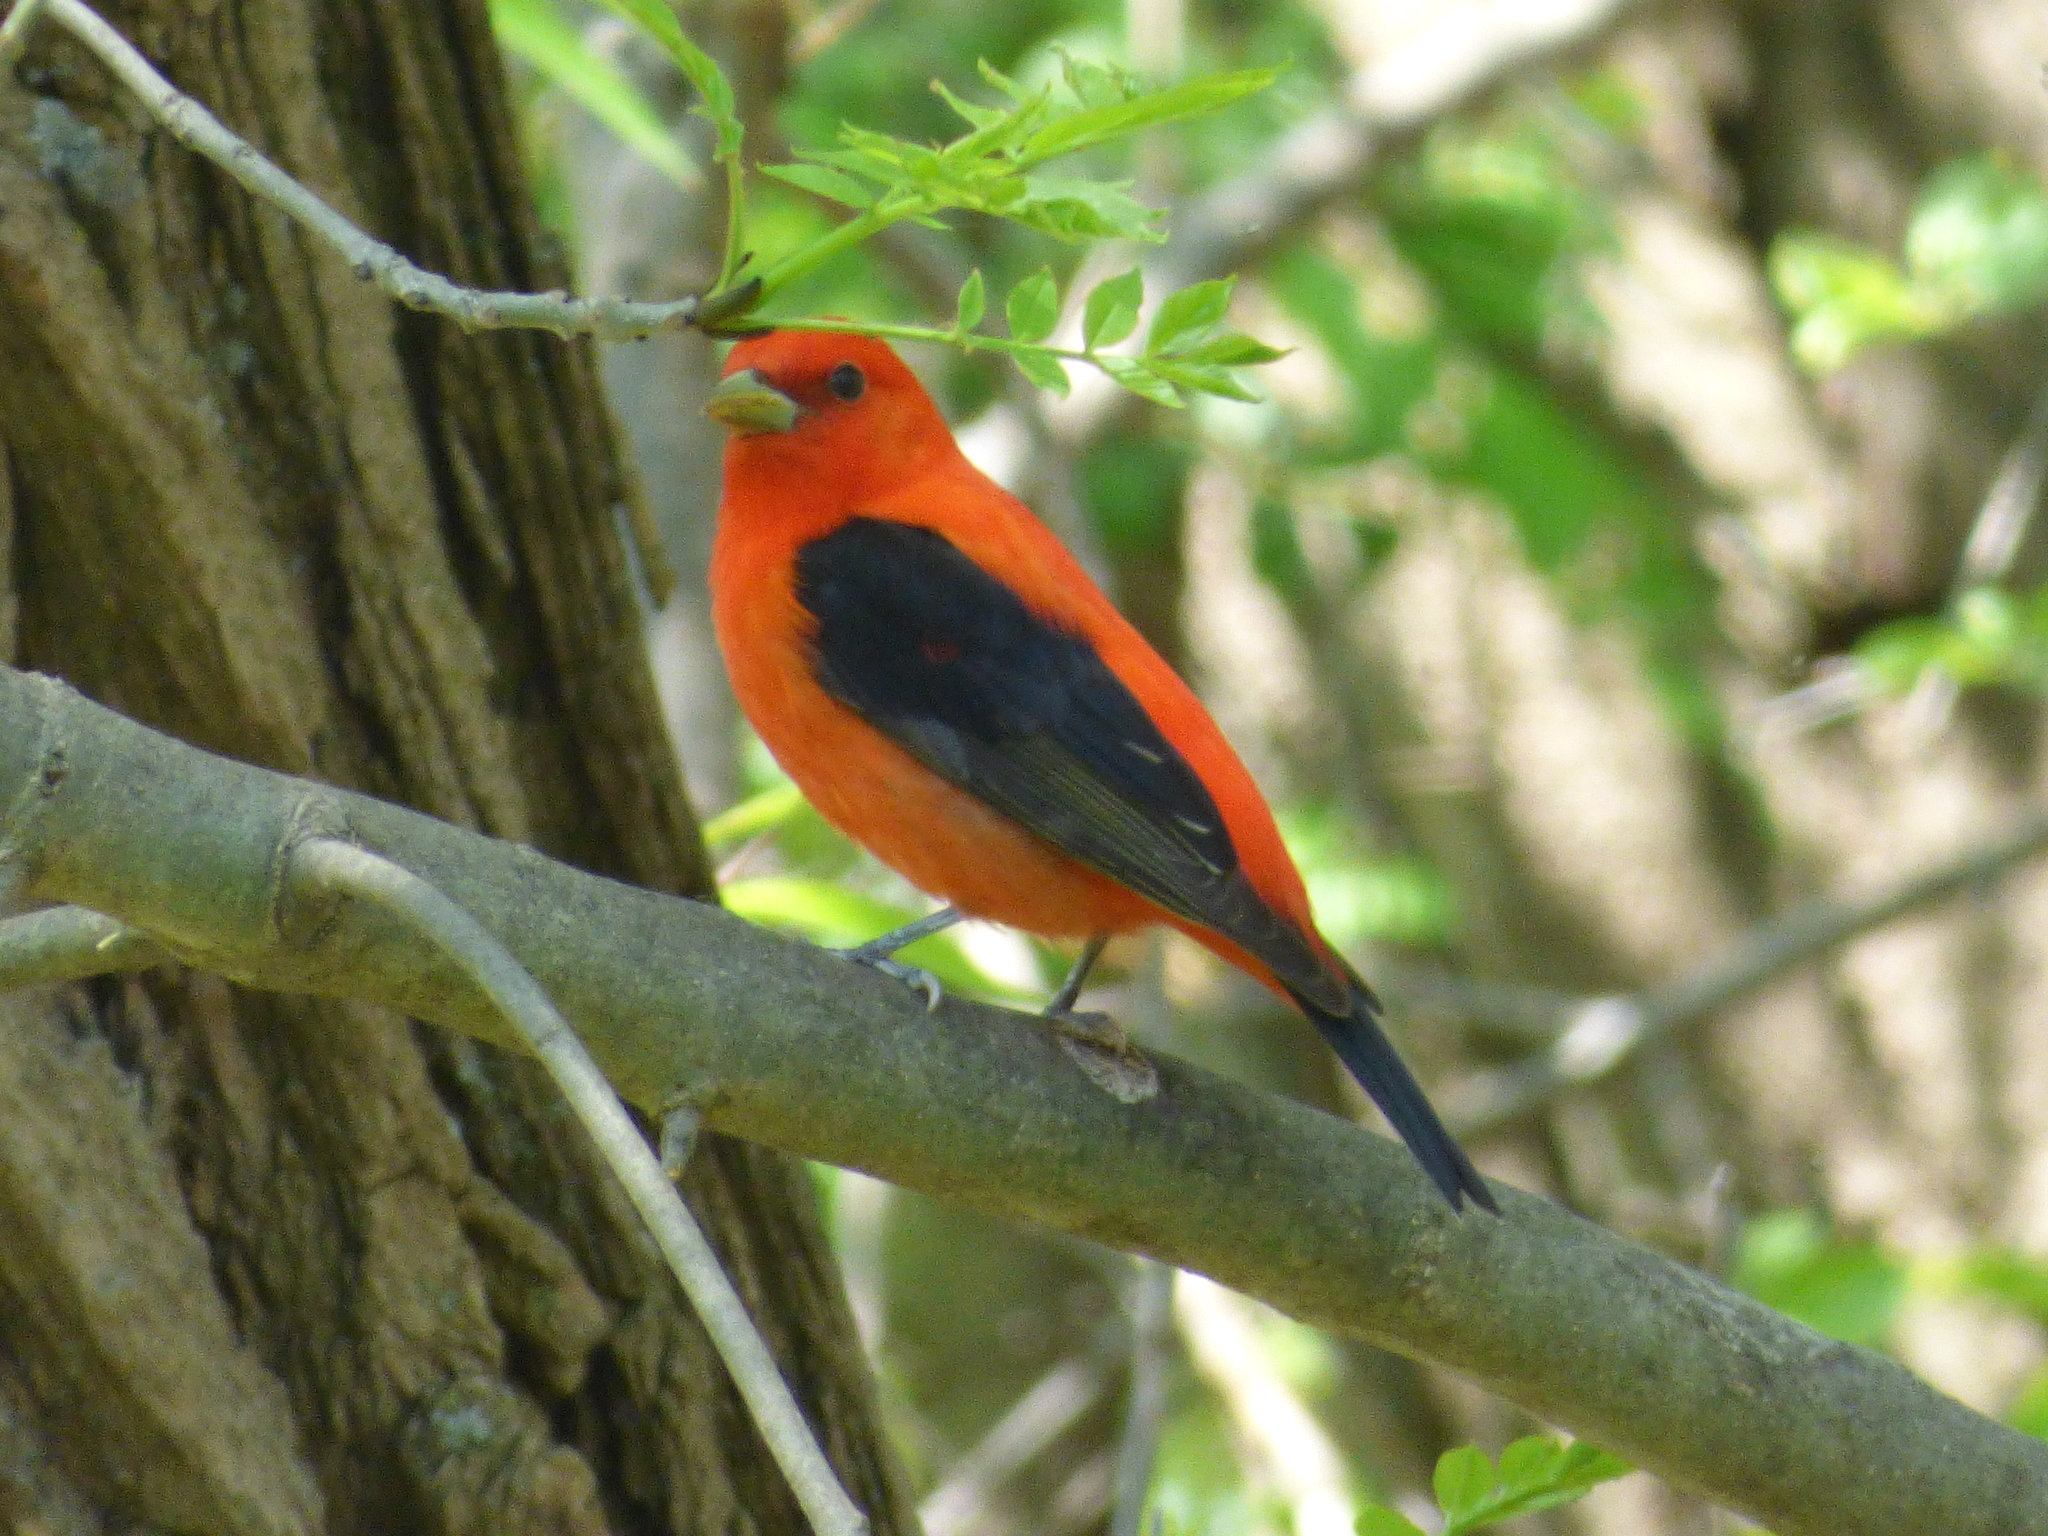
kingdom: Animalia
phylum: Chordata
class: Aves
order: Passeriformes
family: Cardinalidae
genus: Piranga
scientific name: Piranga olivacea
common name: Scarlet tanager
